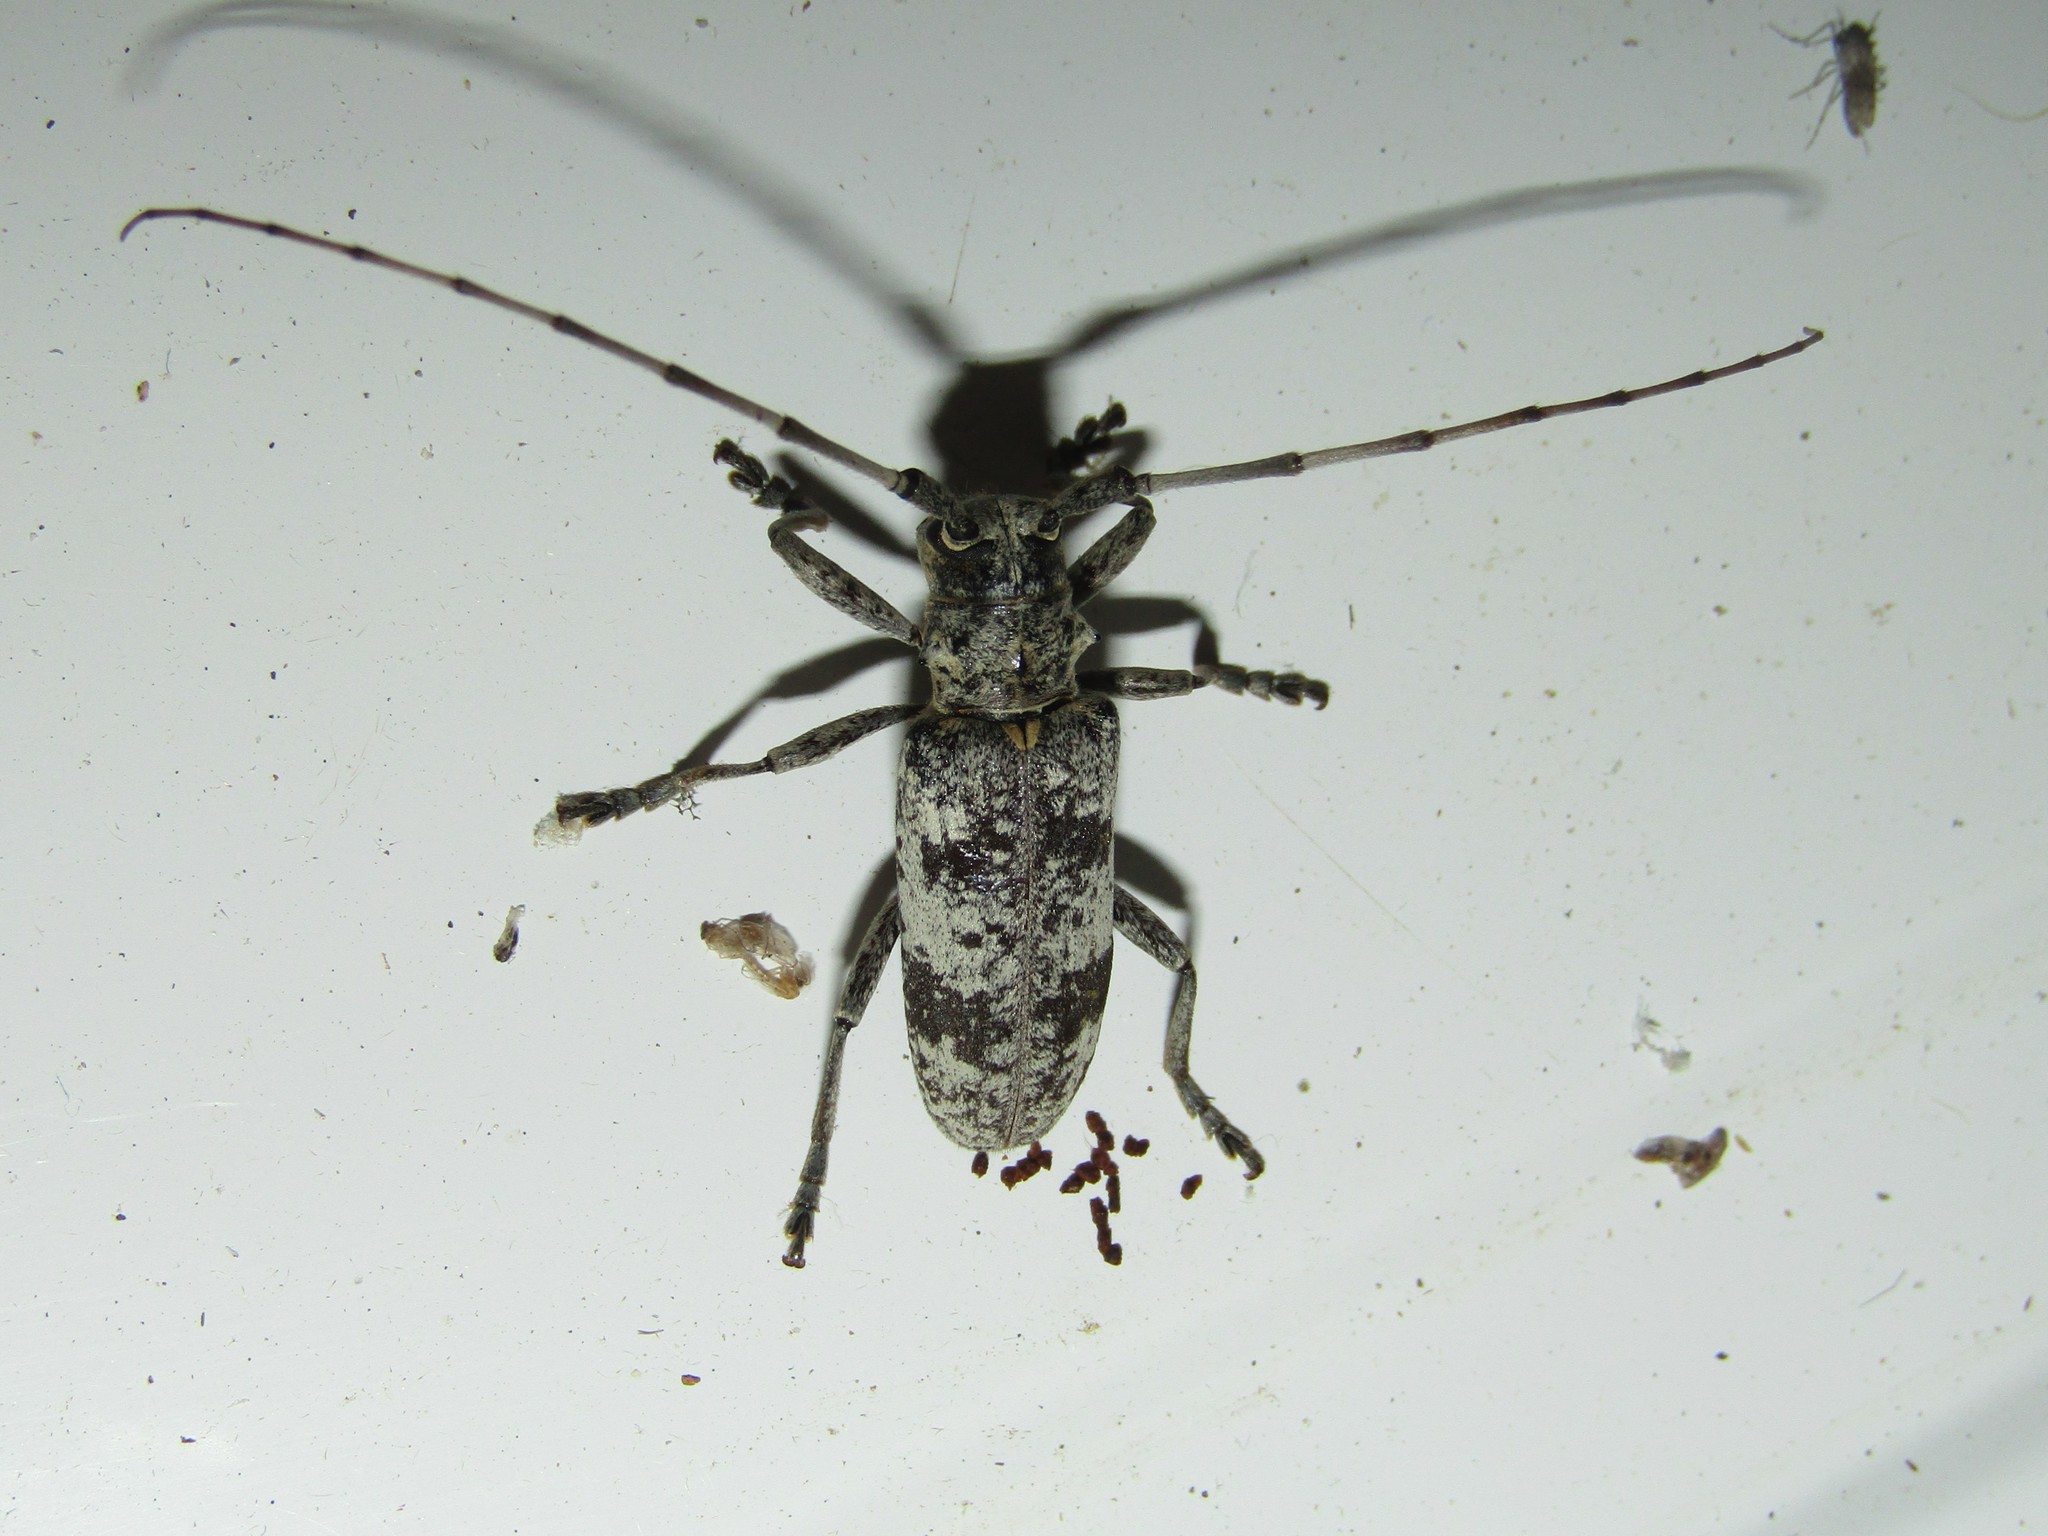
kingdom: Animalia
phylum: Arthropoda
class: Insecta
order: Coleoptera
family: Cerambycidae
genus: Goes
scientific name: Goes tigrinus
